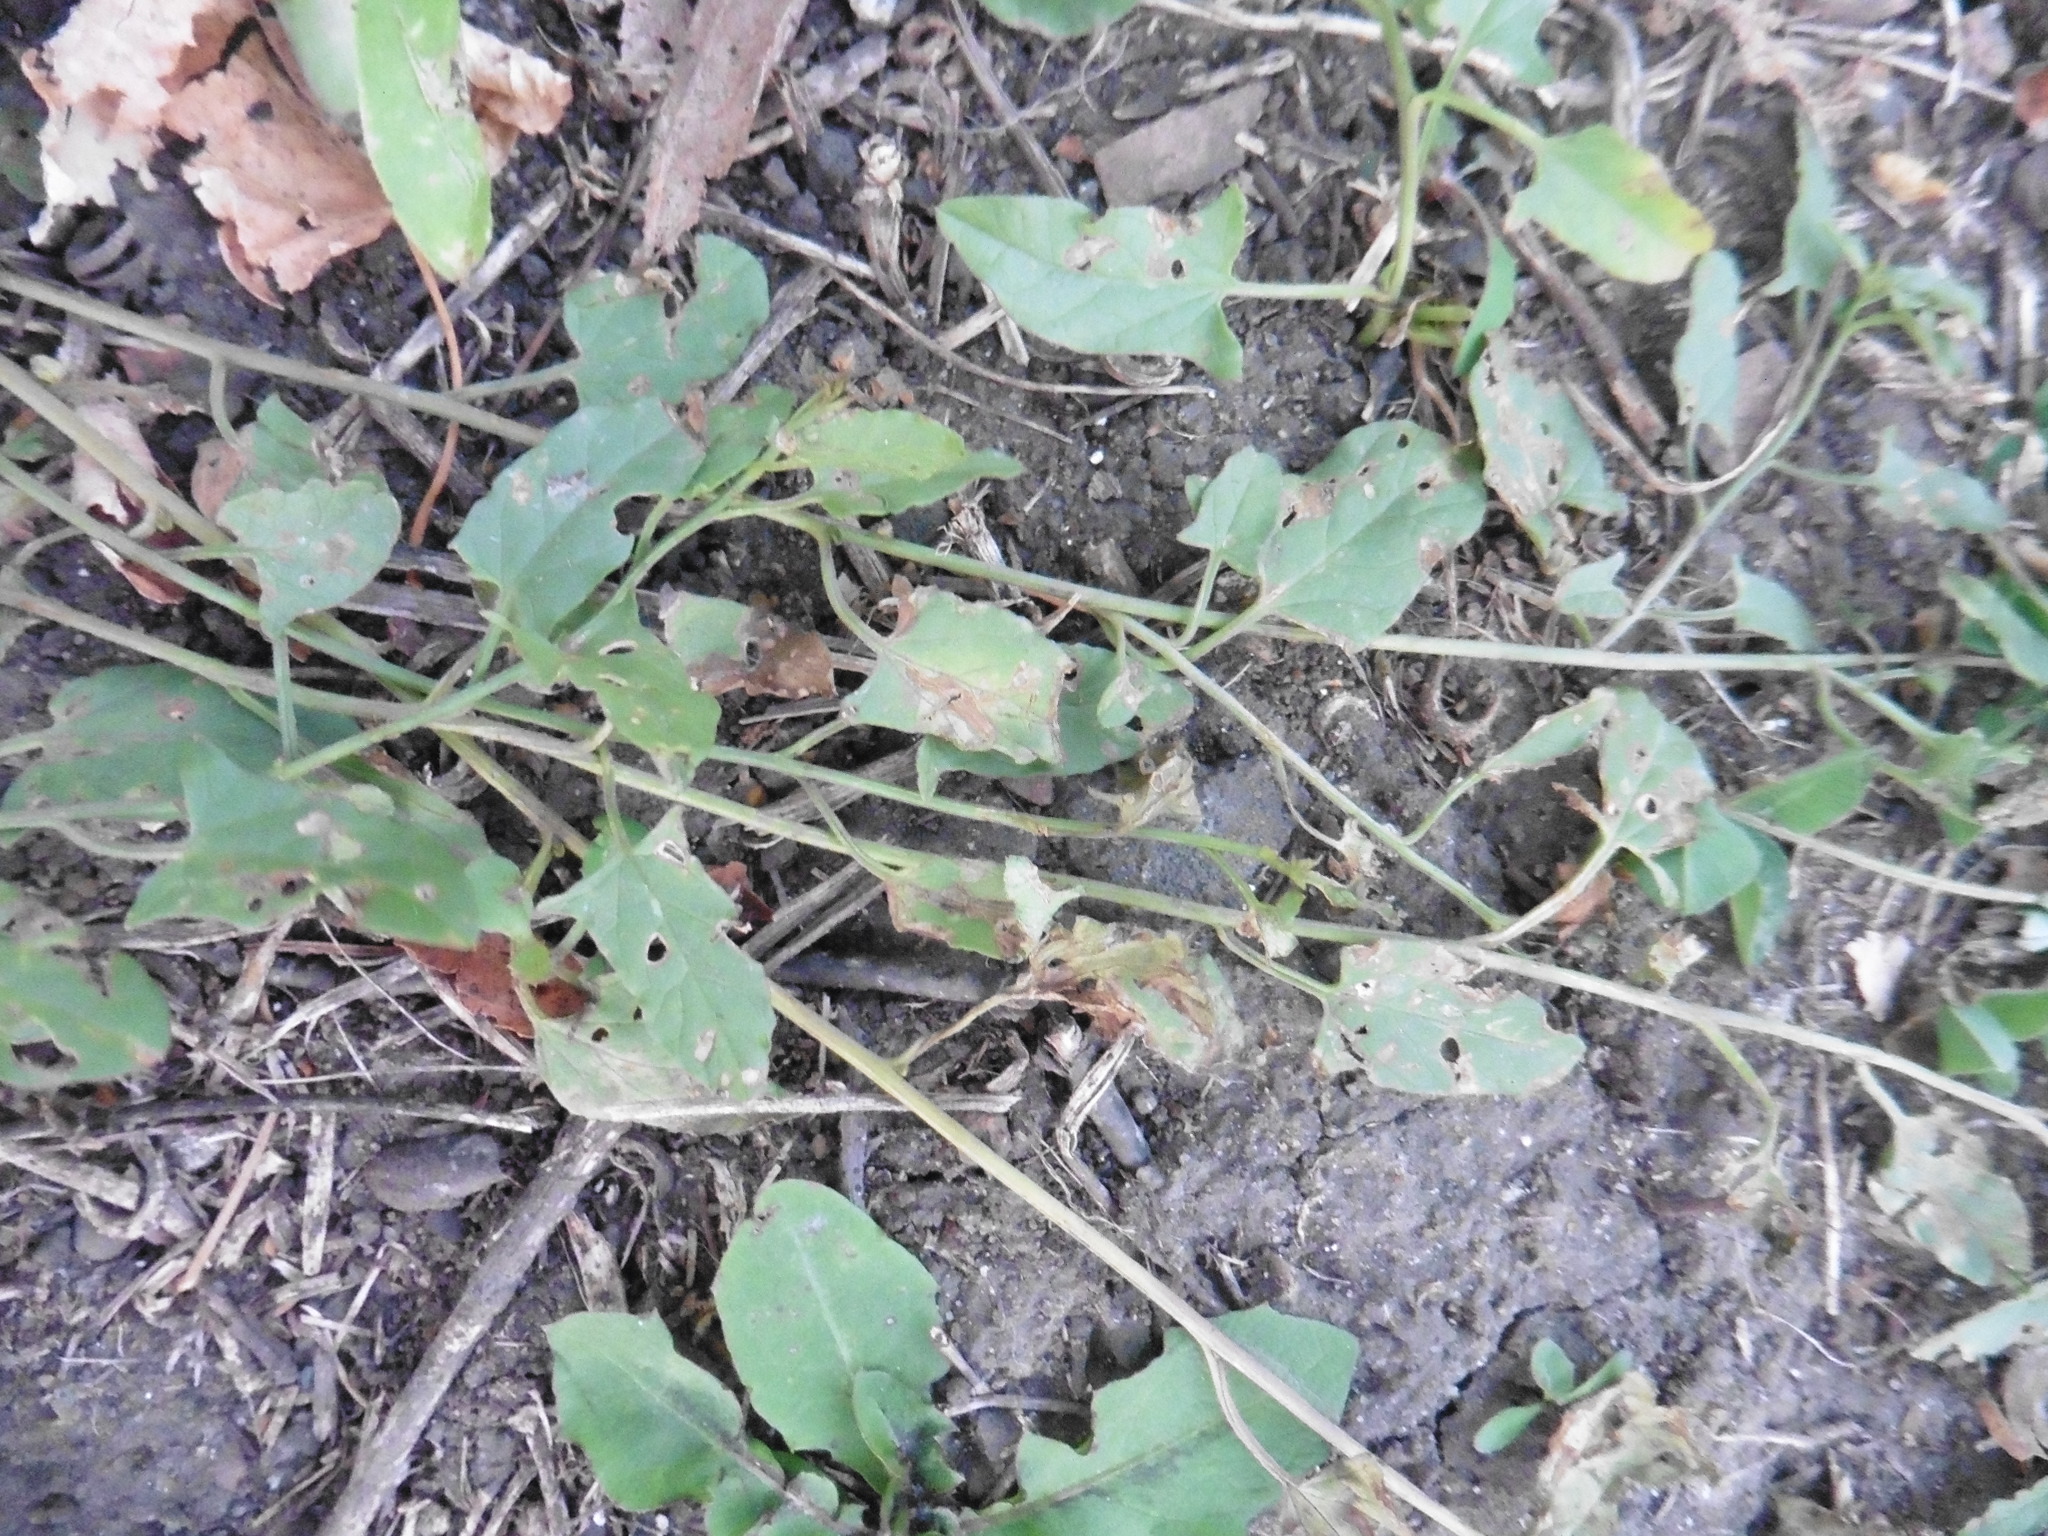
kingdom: Plantae
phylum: Tracheophyta
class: Magnoliopsida
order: Solanales
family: Convolvulaceae
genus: Convolvulus
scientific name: Convolvulus arvensis
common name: Field bindweed
